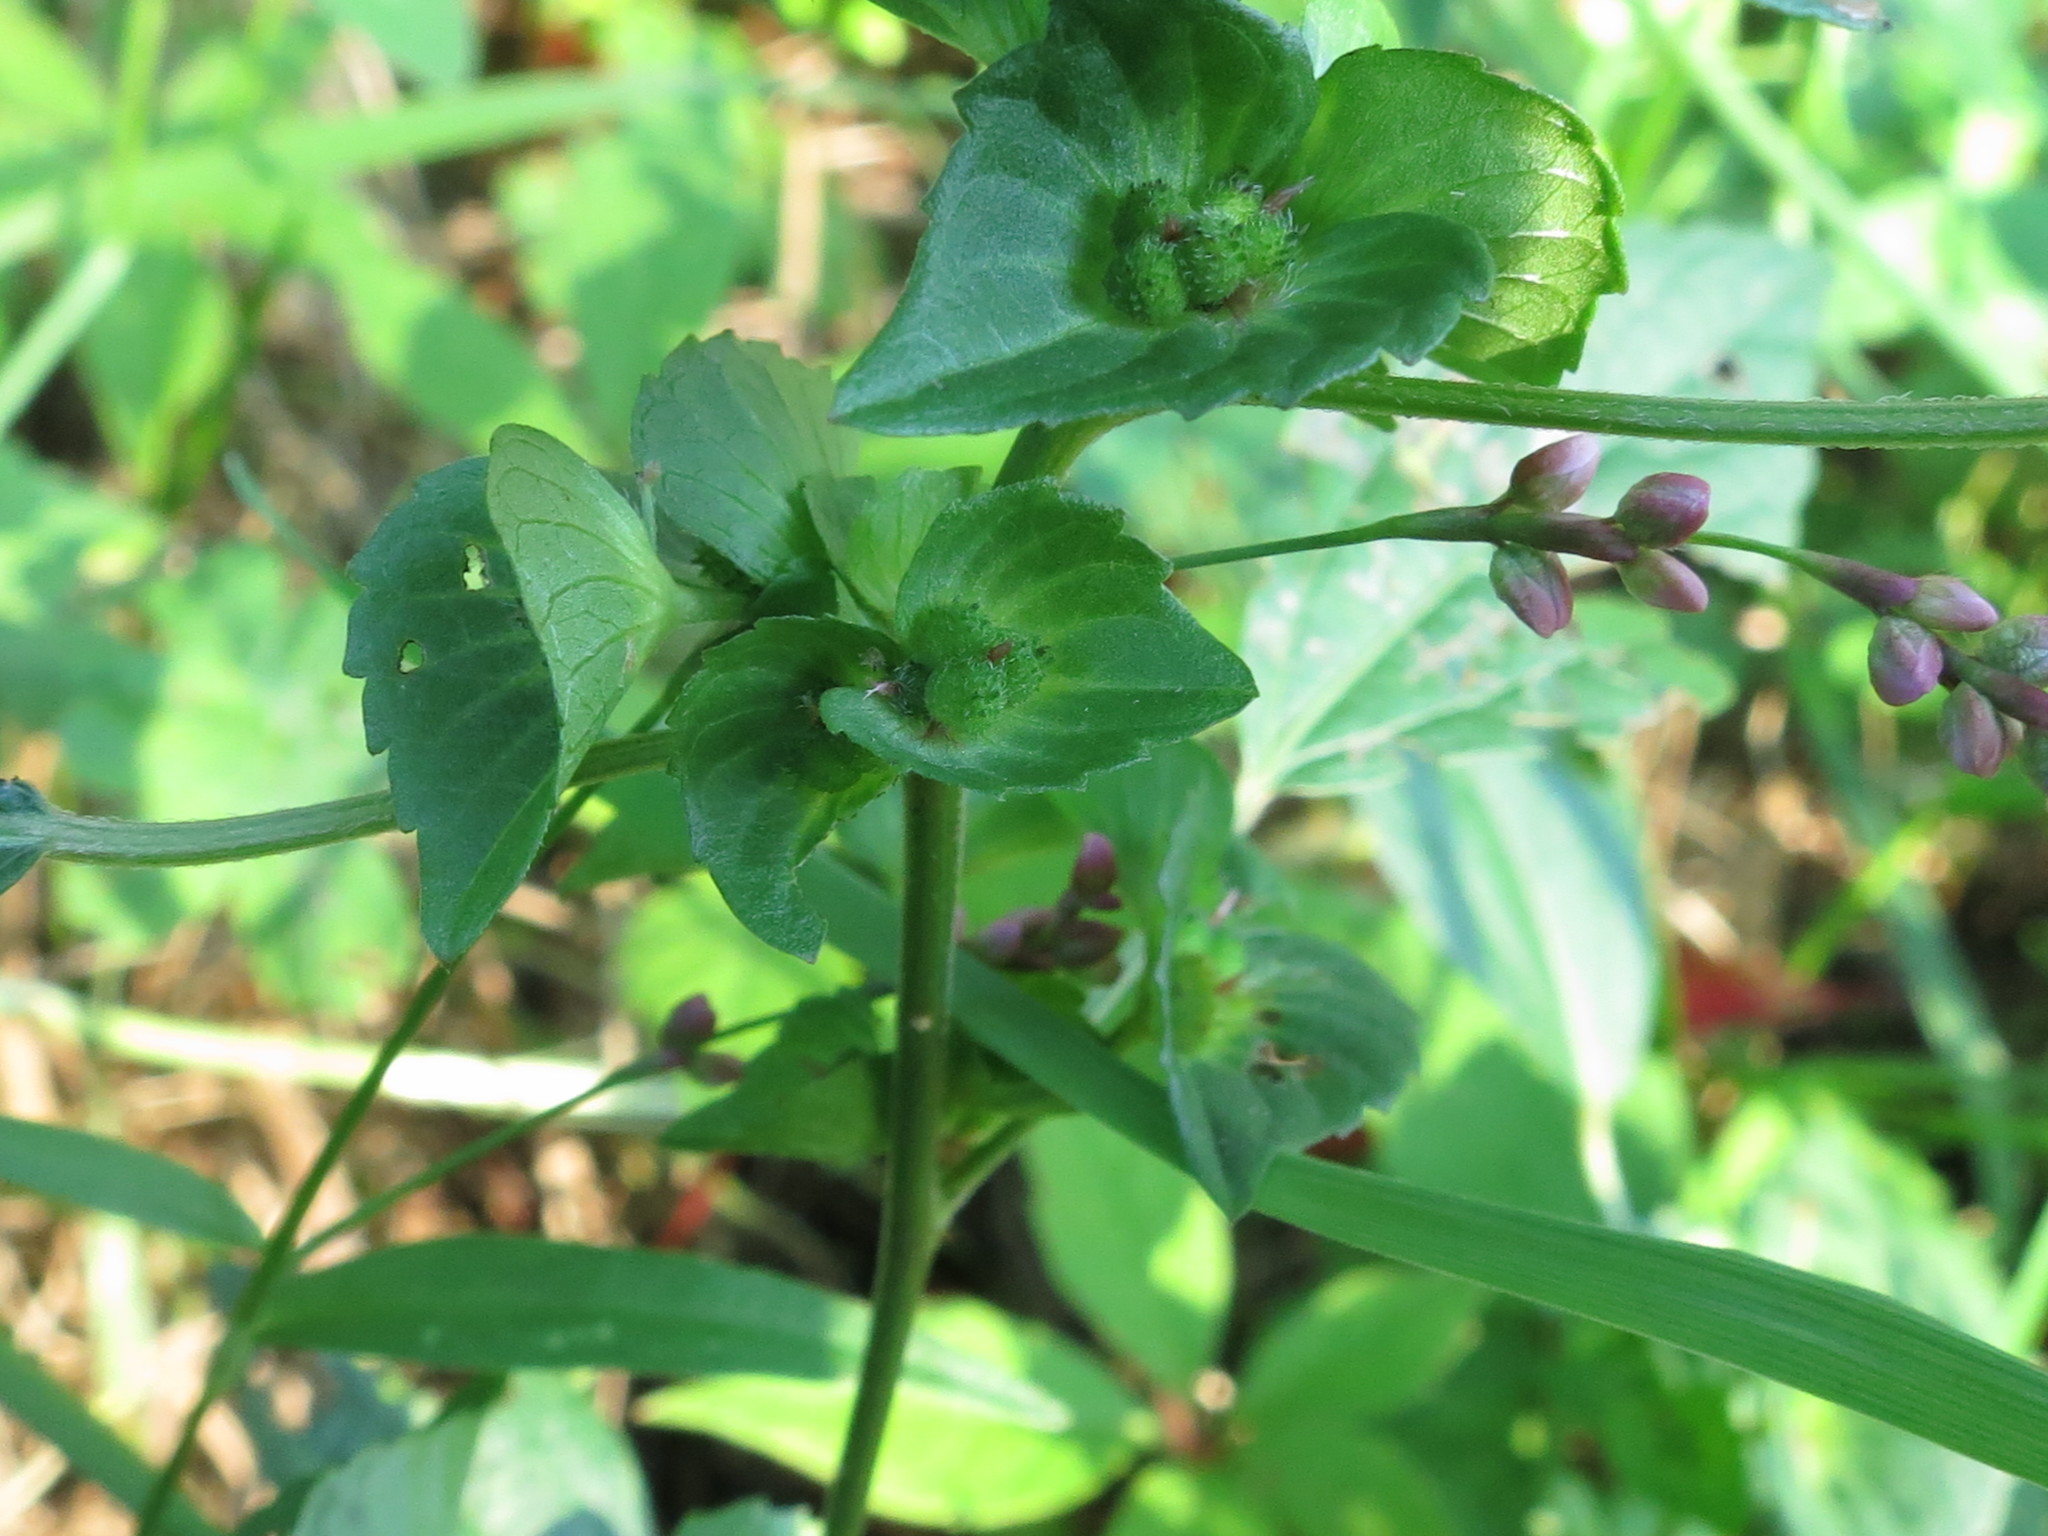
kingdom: Plantae
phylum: Tracheophyta
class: Magnoliopsida
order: Malpighiales
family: Euphorbiaceae
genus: Acalypha
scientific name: Acalypha australis
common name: Asian copperleaf
